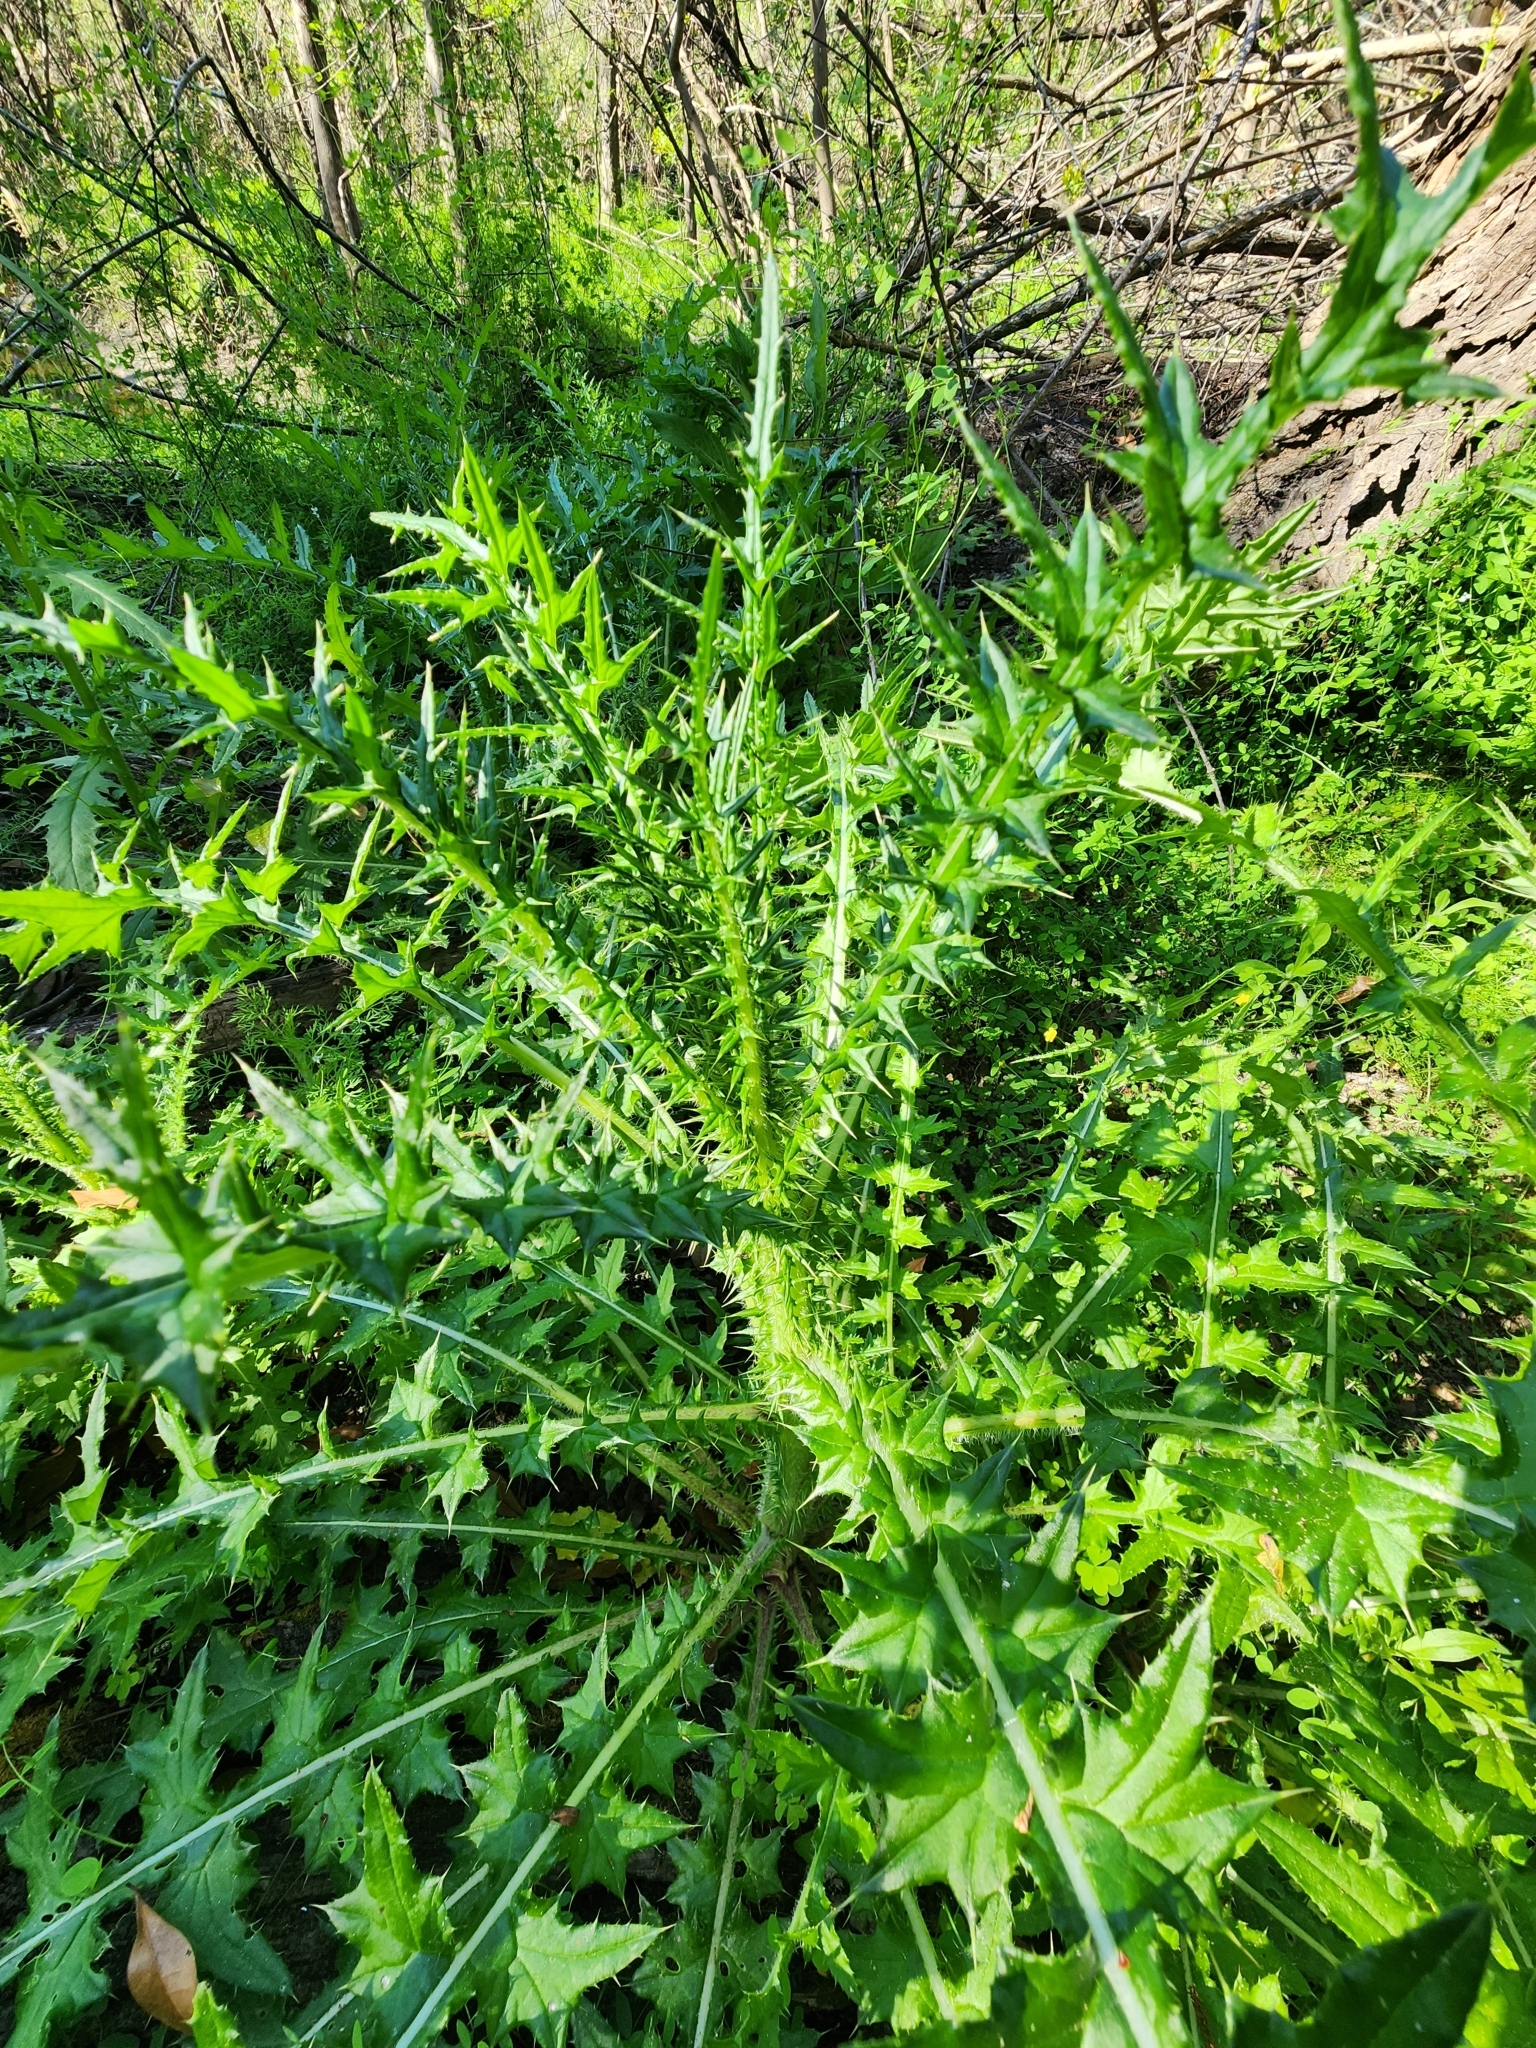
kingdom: Plantae
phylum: Tracheophyta
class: Magnoliopsida
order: Asterales
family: Asteraceae
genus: Cirsium
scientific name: Cirsium nuttalii
